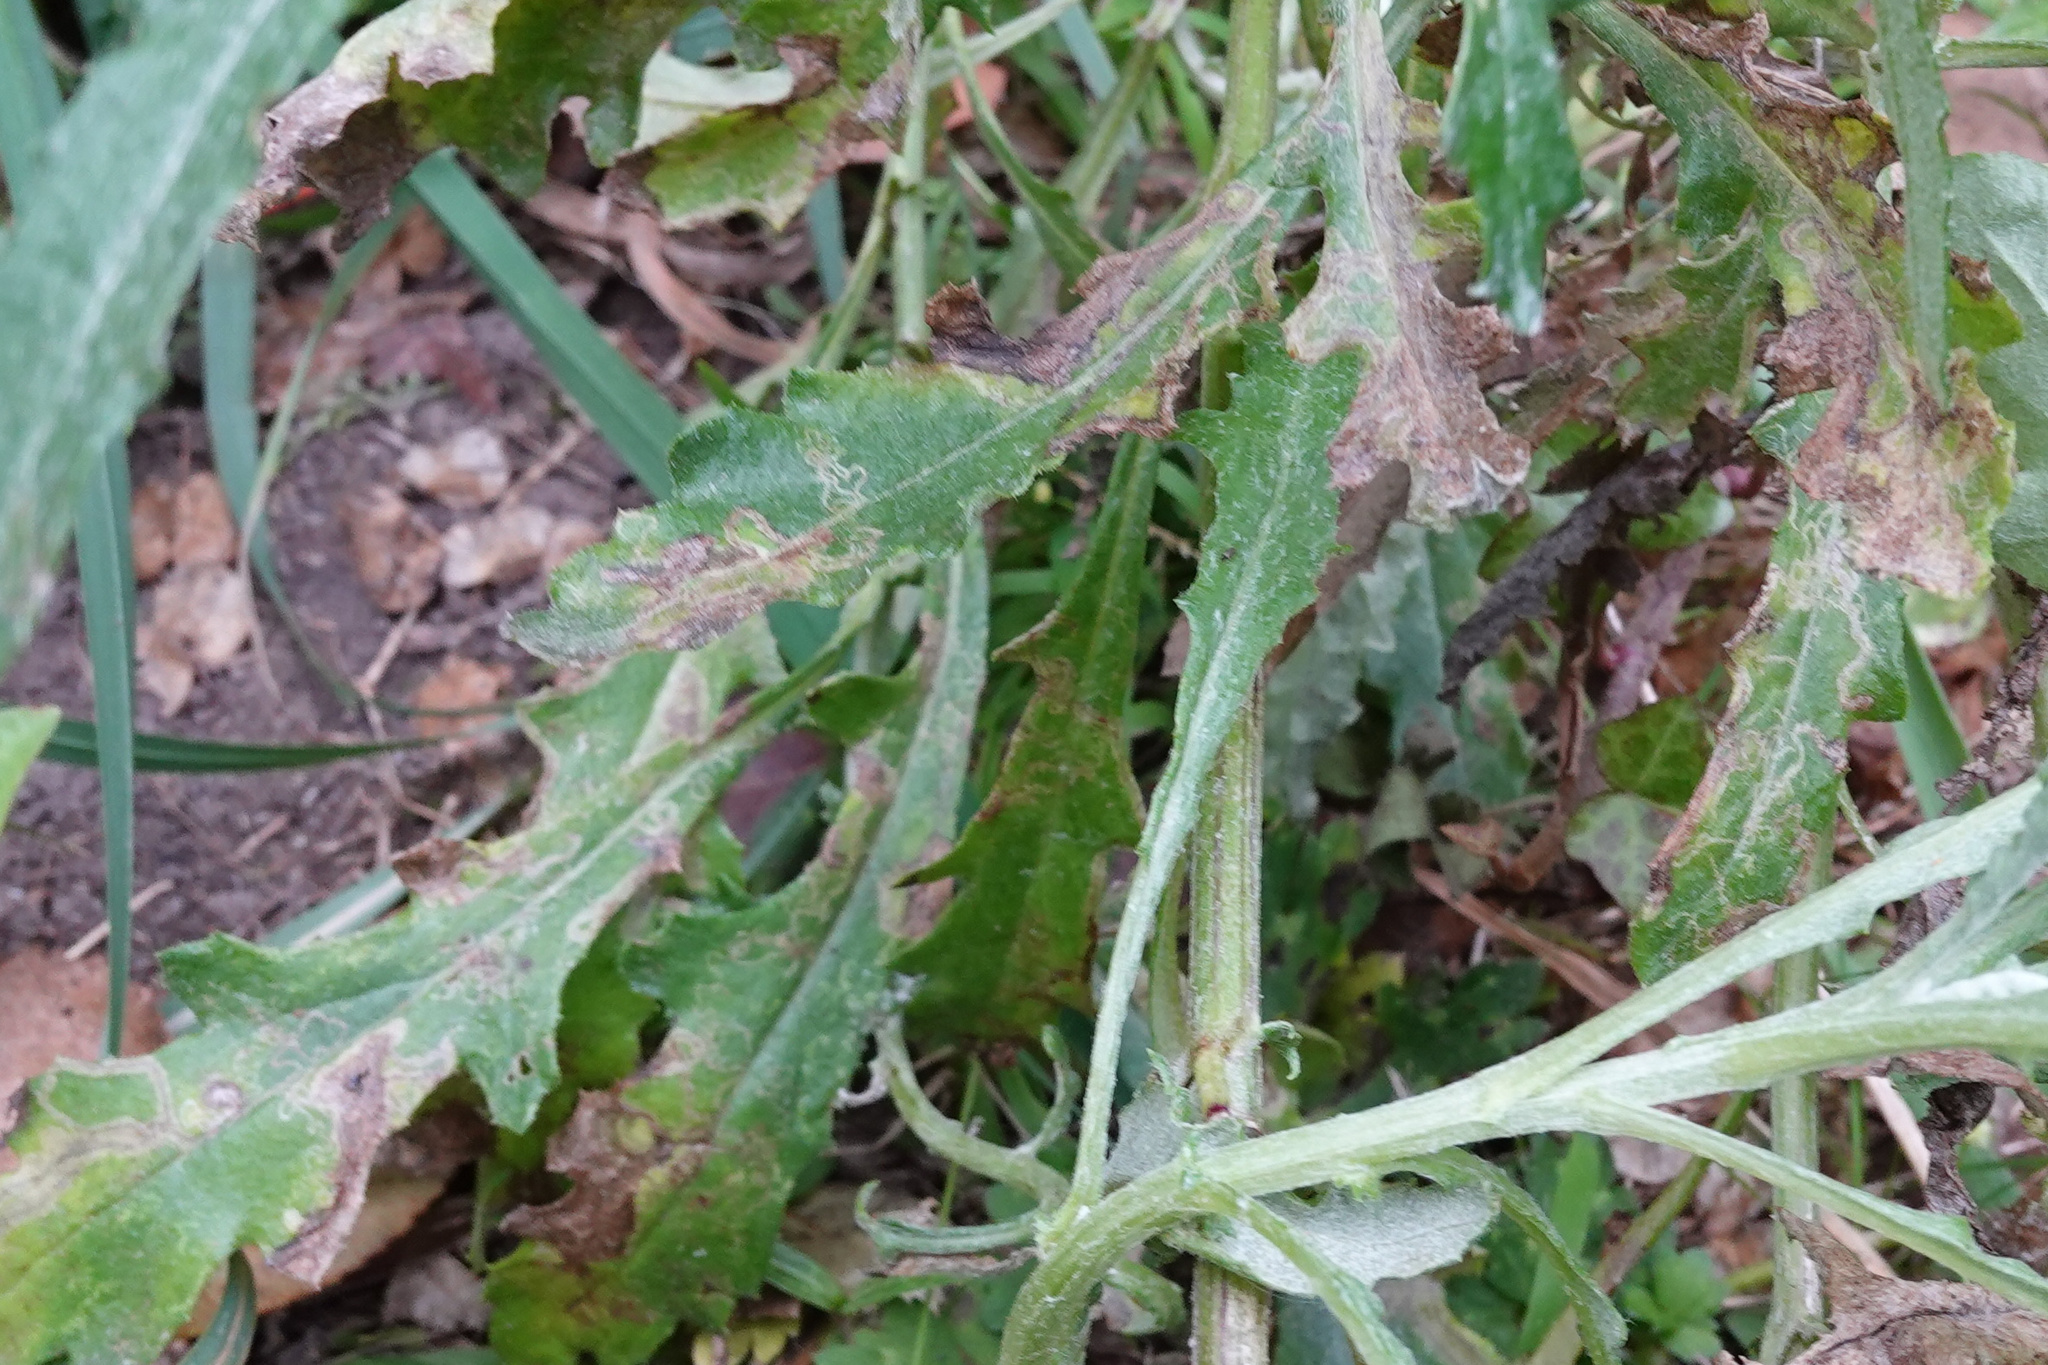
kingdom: Animalia
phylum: Arthropoda
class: Insecta
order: Lepidoptera
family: Nepticulidae
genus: Stigmella
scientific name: Stigmella ogygia
